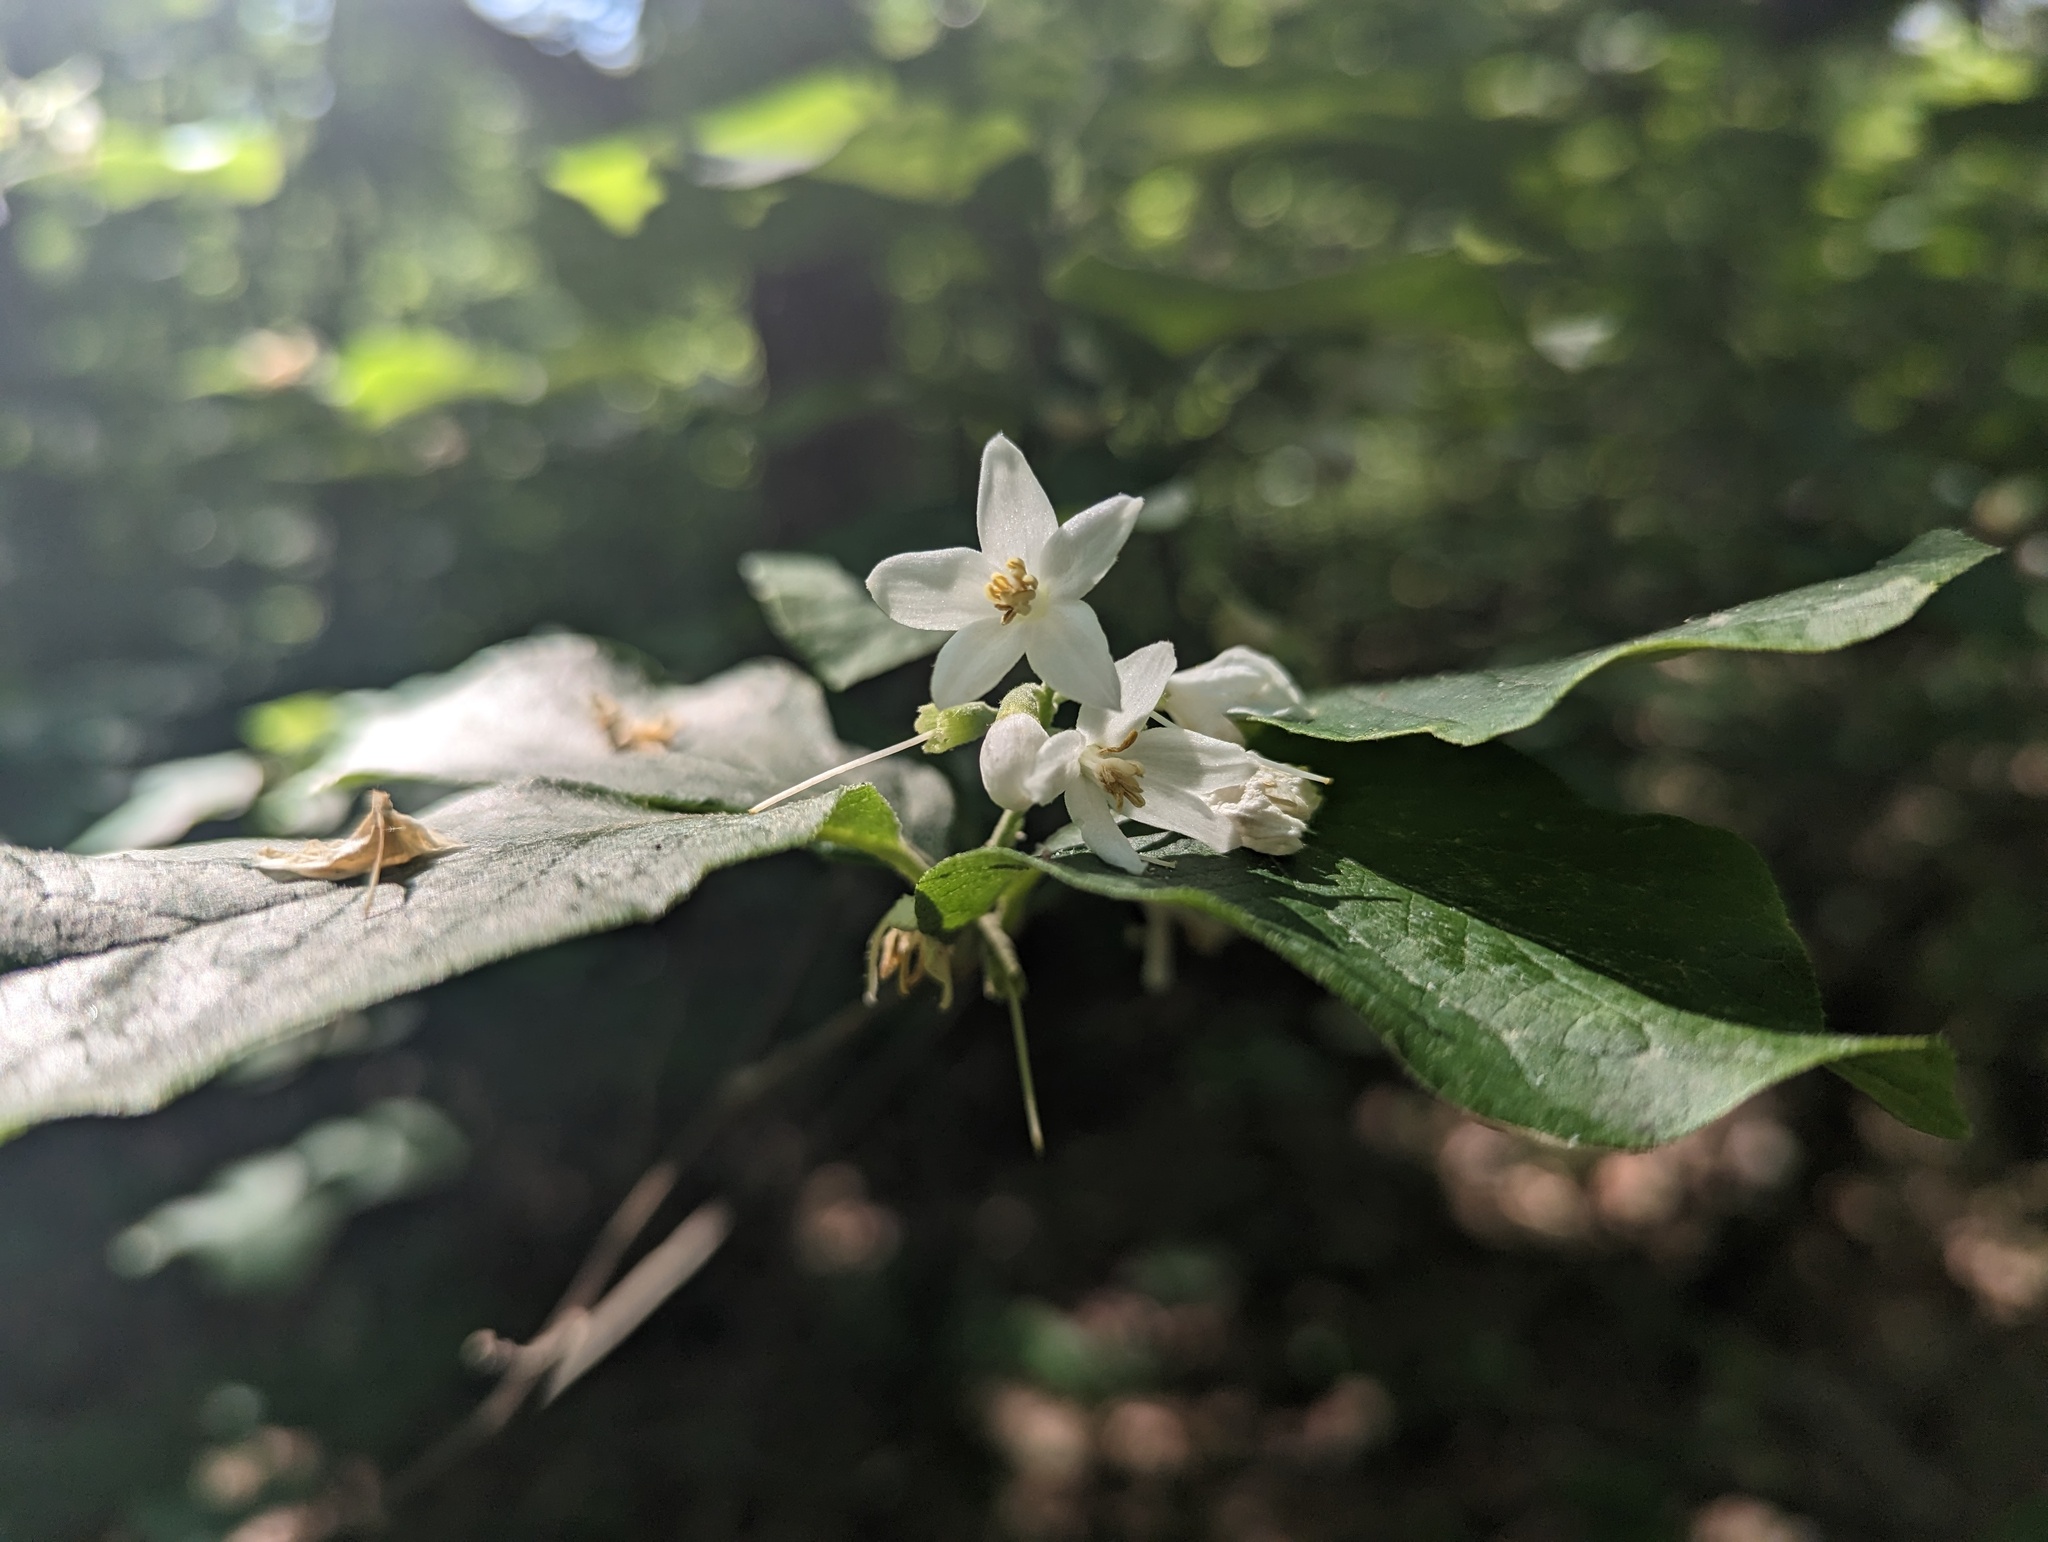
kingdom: Plantae
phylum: Tracheophyta
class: Magnoliopsida
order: Ericales
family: Styracaceae
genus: Styrax
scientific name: Styrax grandifolius
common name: Big-leaf snowbell
